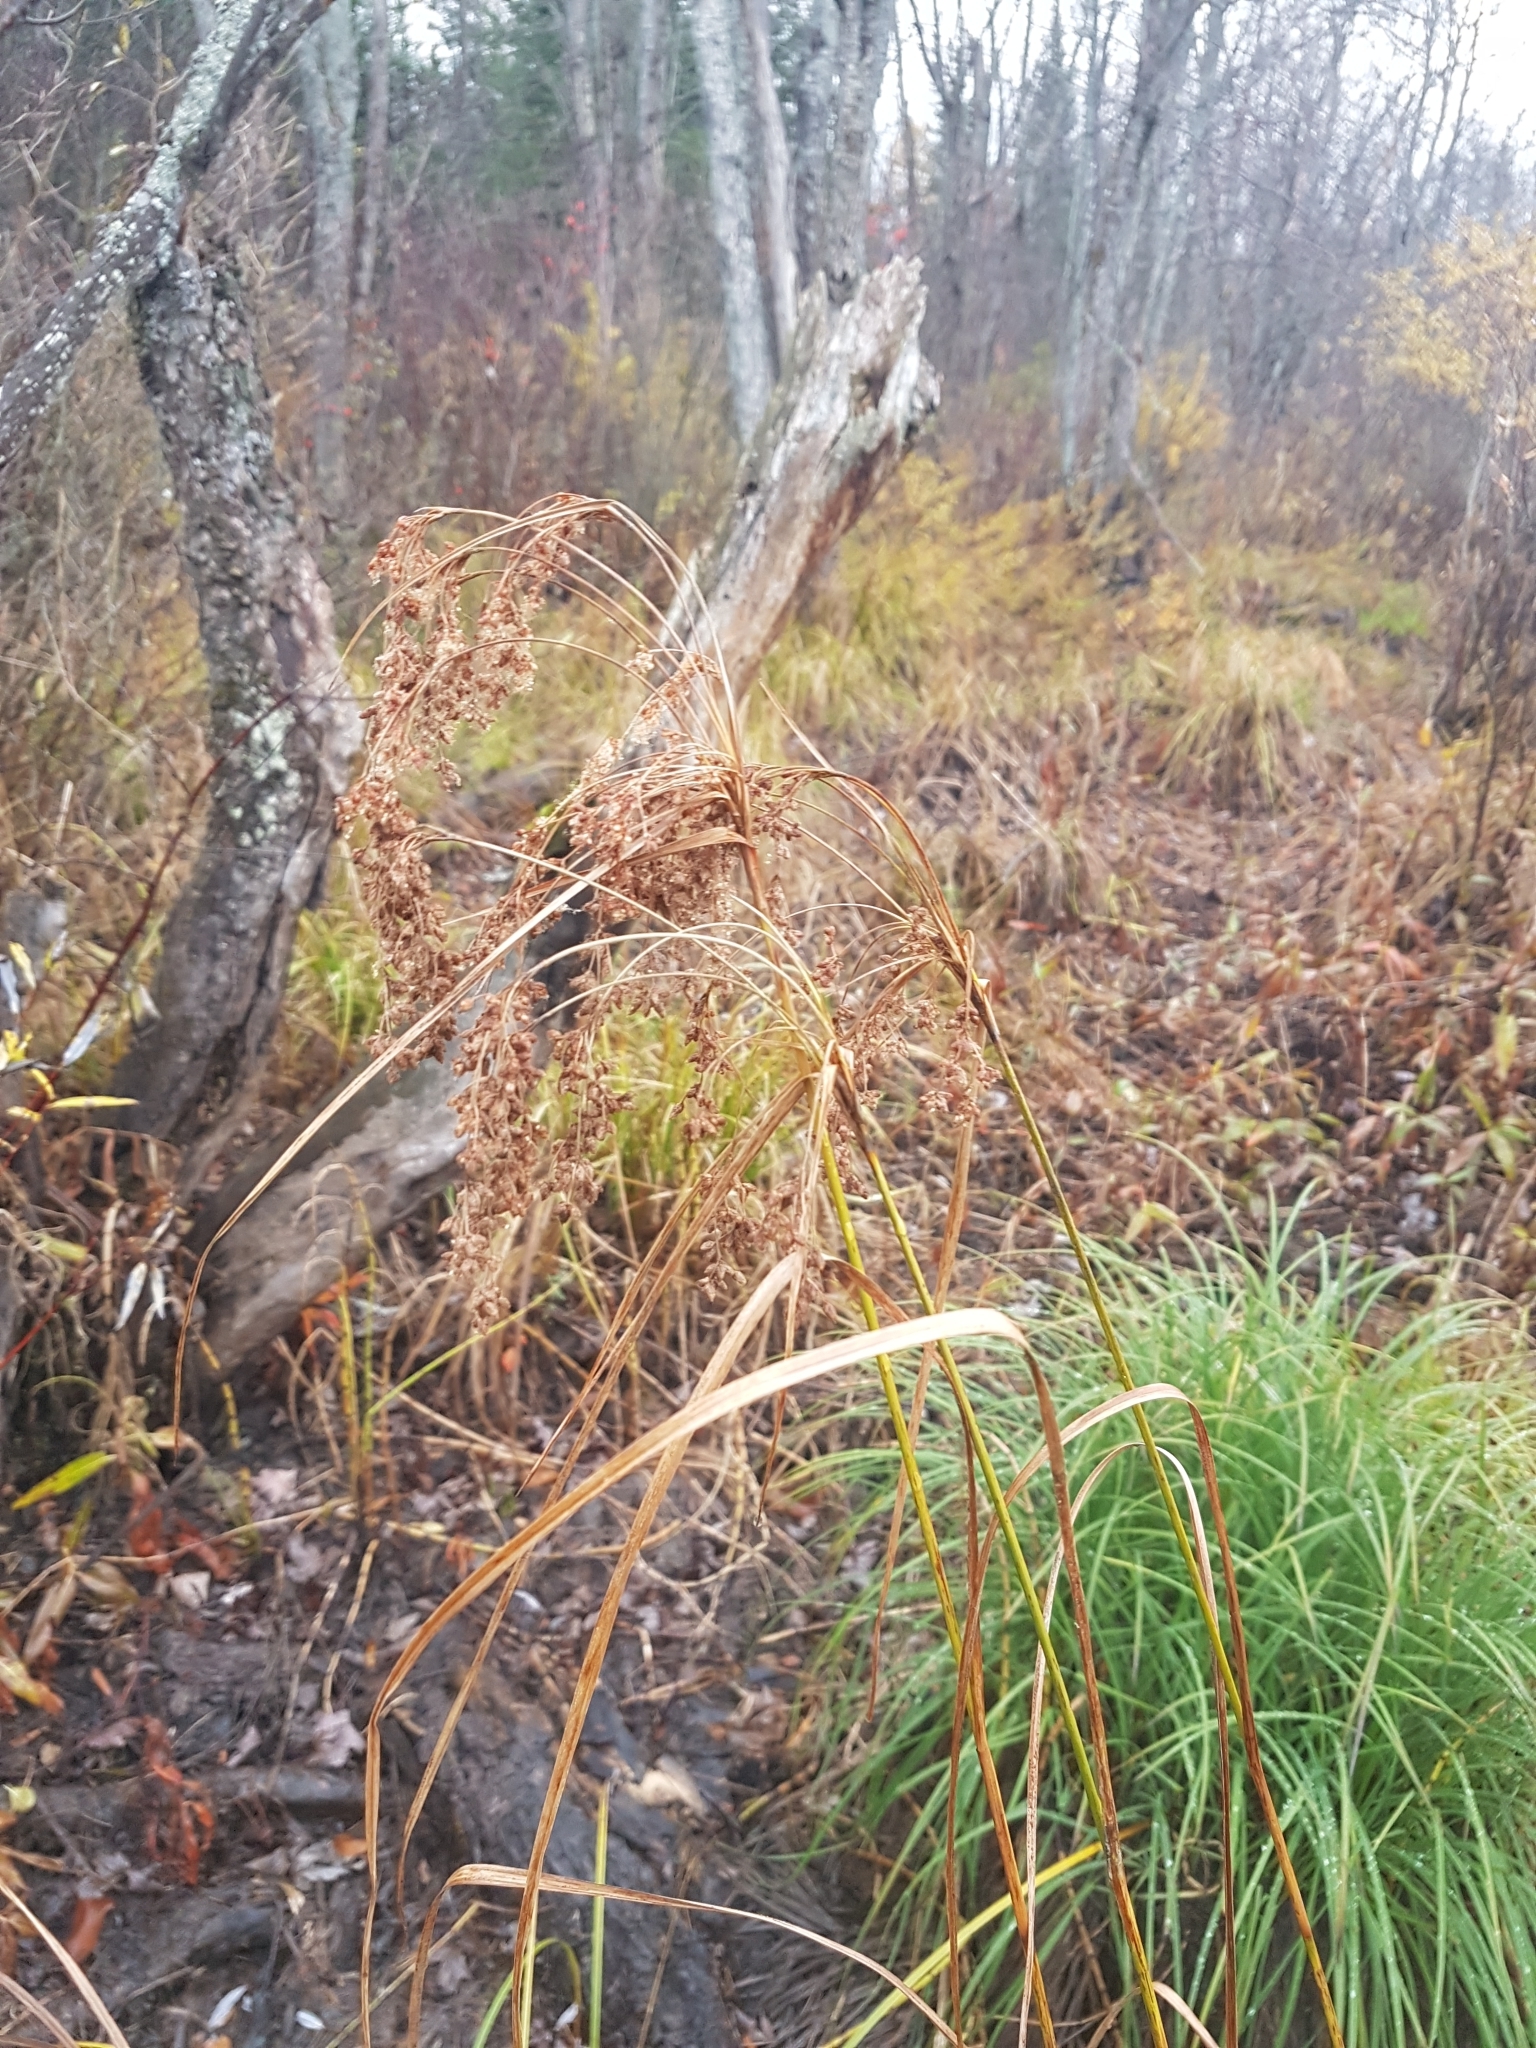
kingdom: Plantae
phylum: Tracheophyta
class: Liliopsida
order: Poales
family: Cyperaceae
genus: Scirpus
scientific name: Scirpus cyperinus
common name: Black-sheathed bulrush
